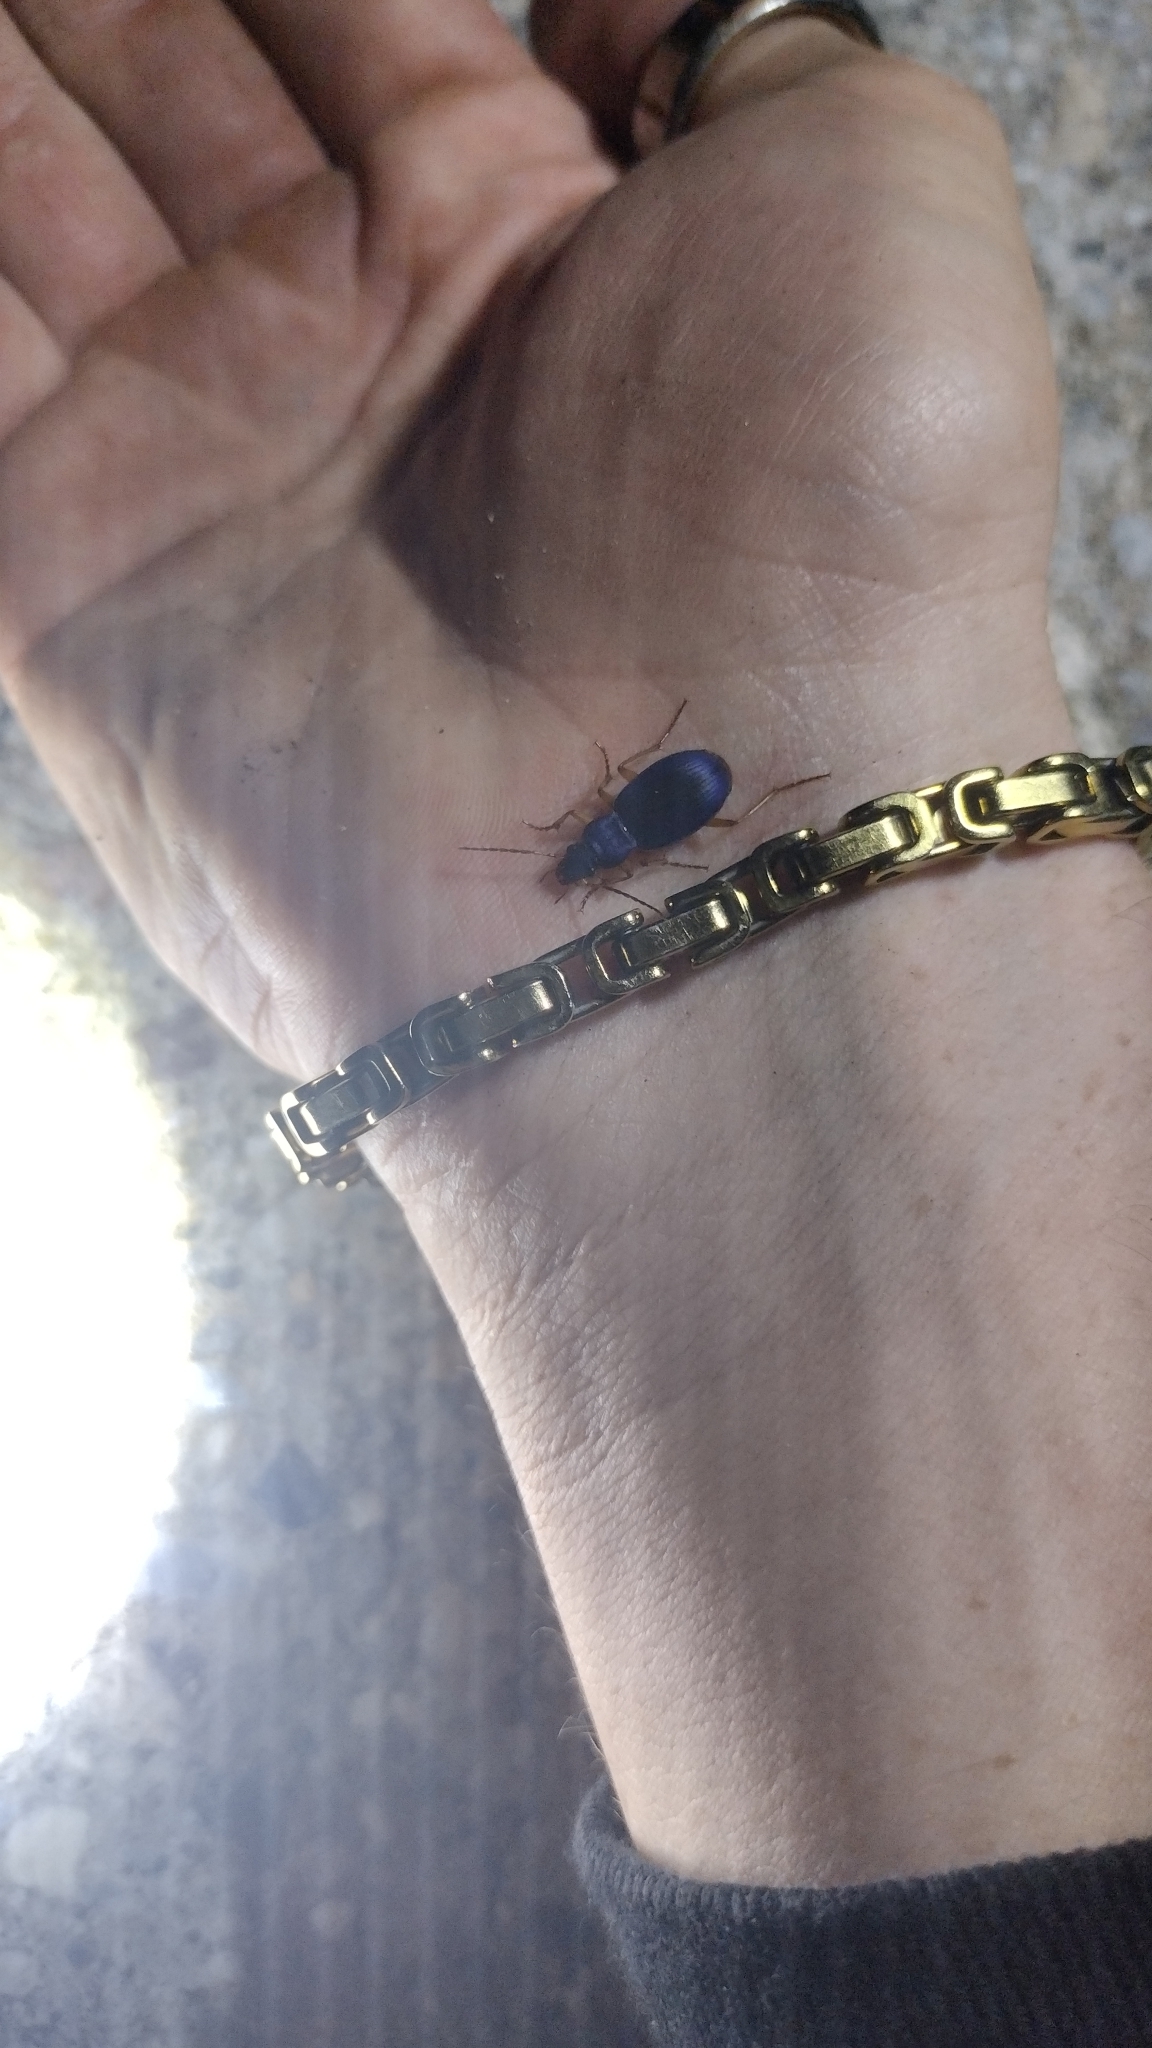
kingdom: Animalia
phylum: Arthropoda
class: Insecta
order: Coleoptera
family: Carabidae
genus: Chlaenius
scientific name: Chlaenius cumatilis
